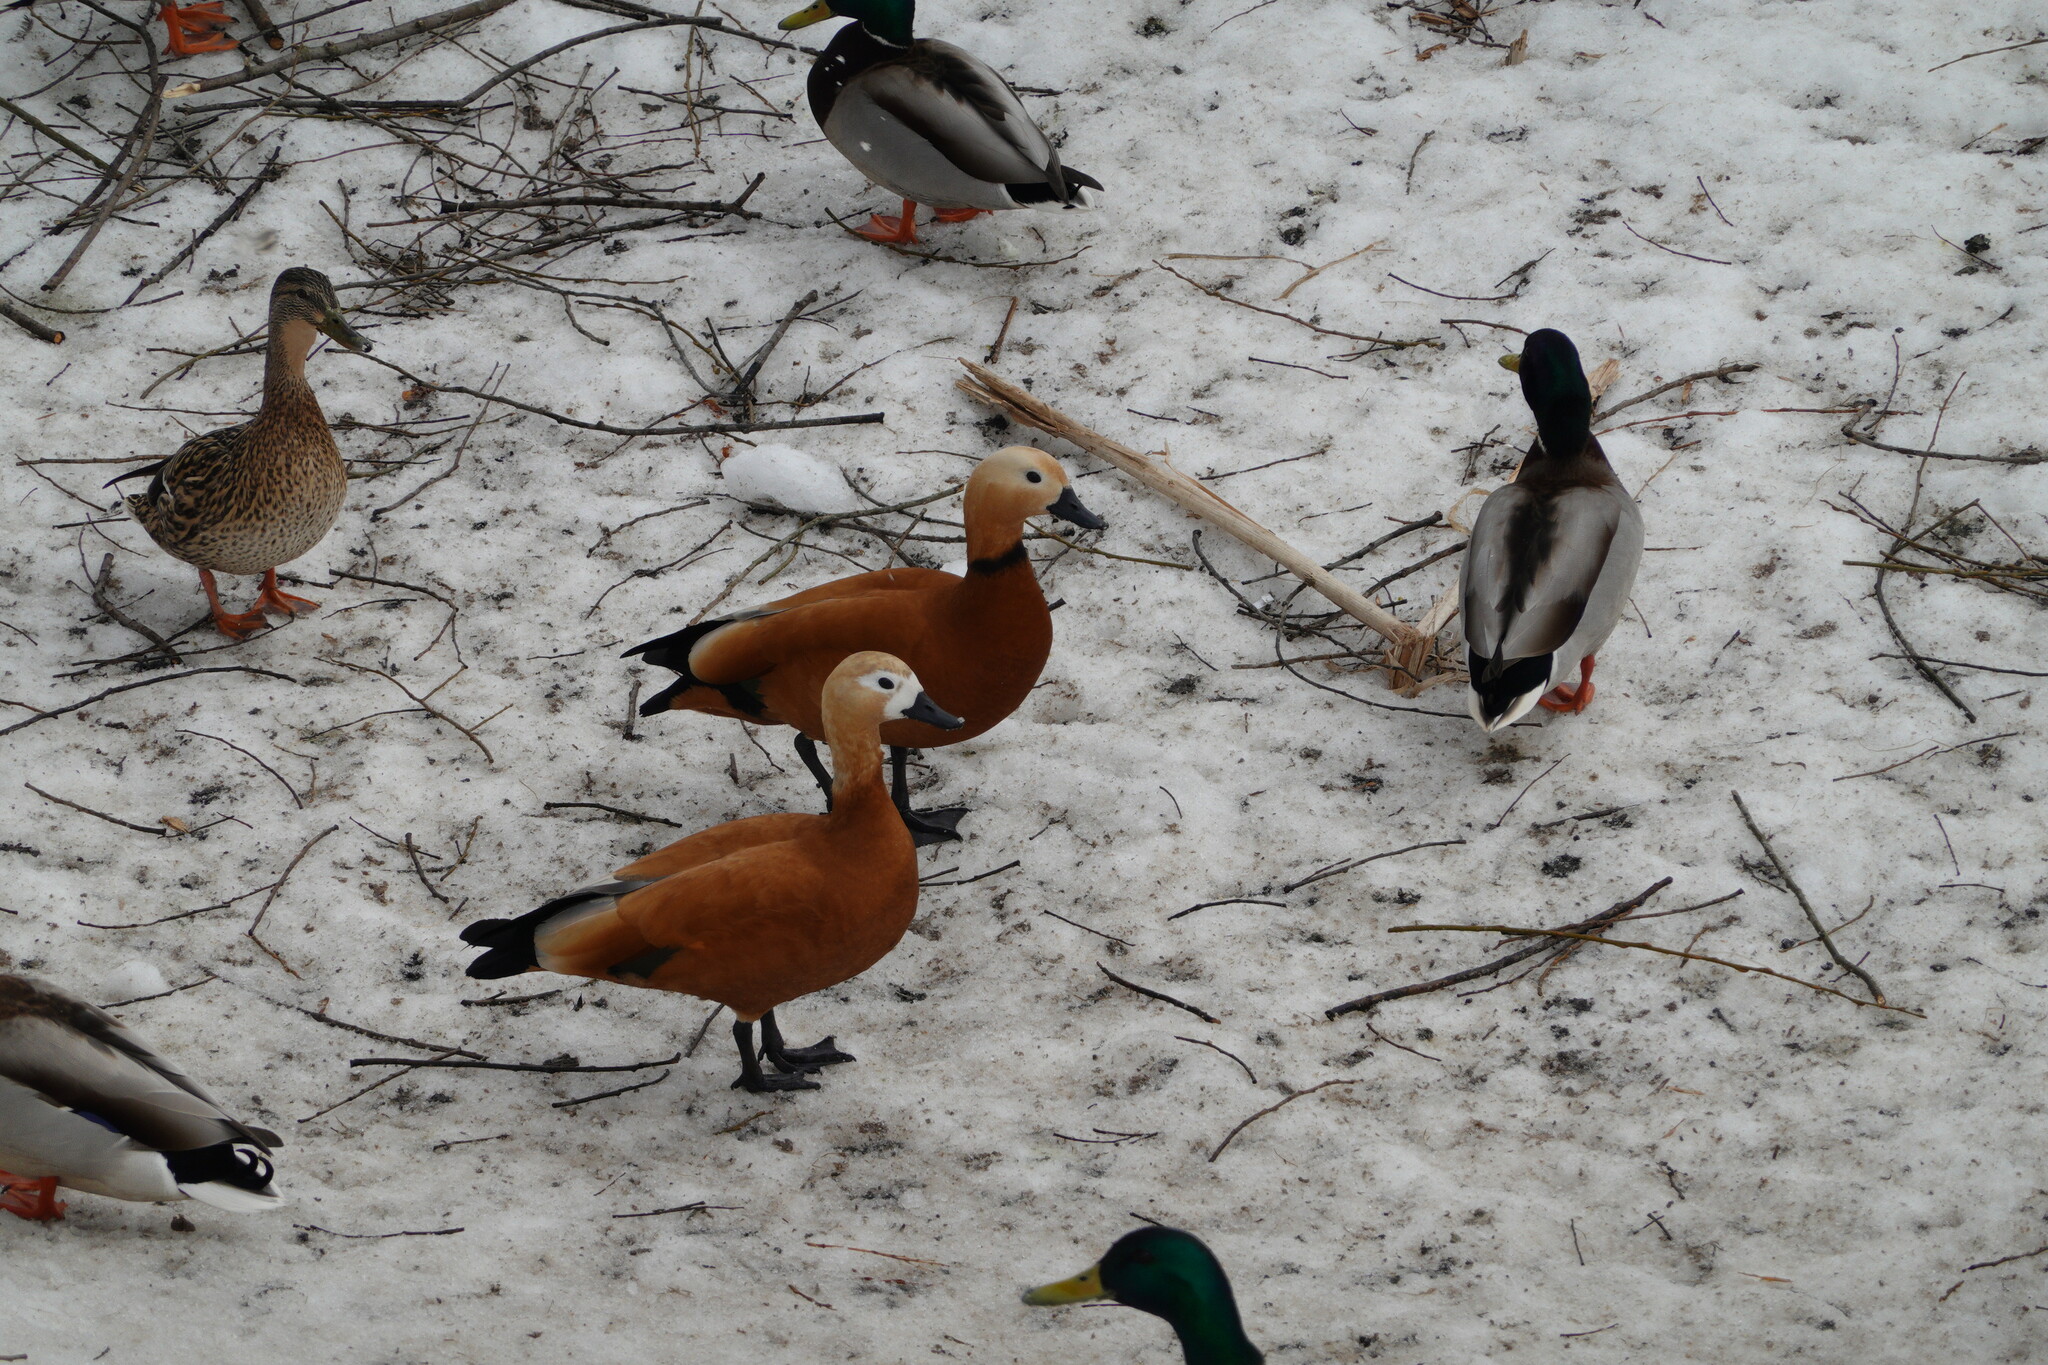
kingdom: Animalia
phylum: Chordata
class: Aves
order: Anseriformes
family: Anatidae
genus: Tadorna
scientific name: Tadorna ferruginea
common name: Ruddy shelduck
